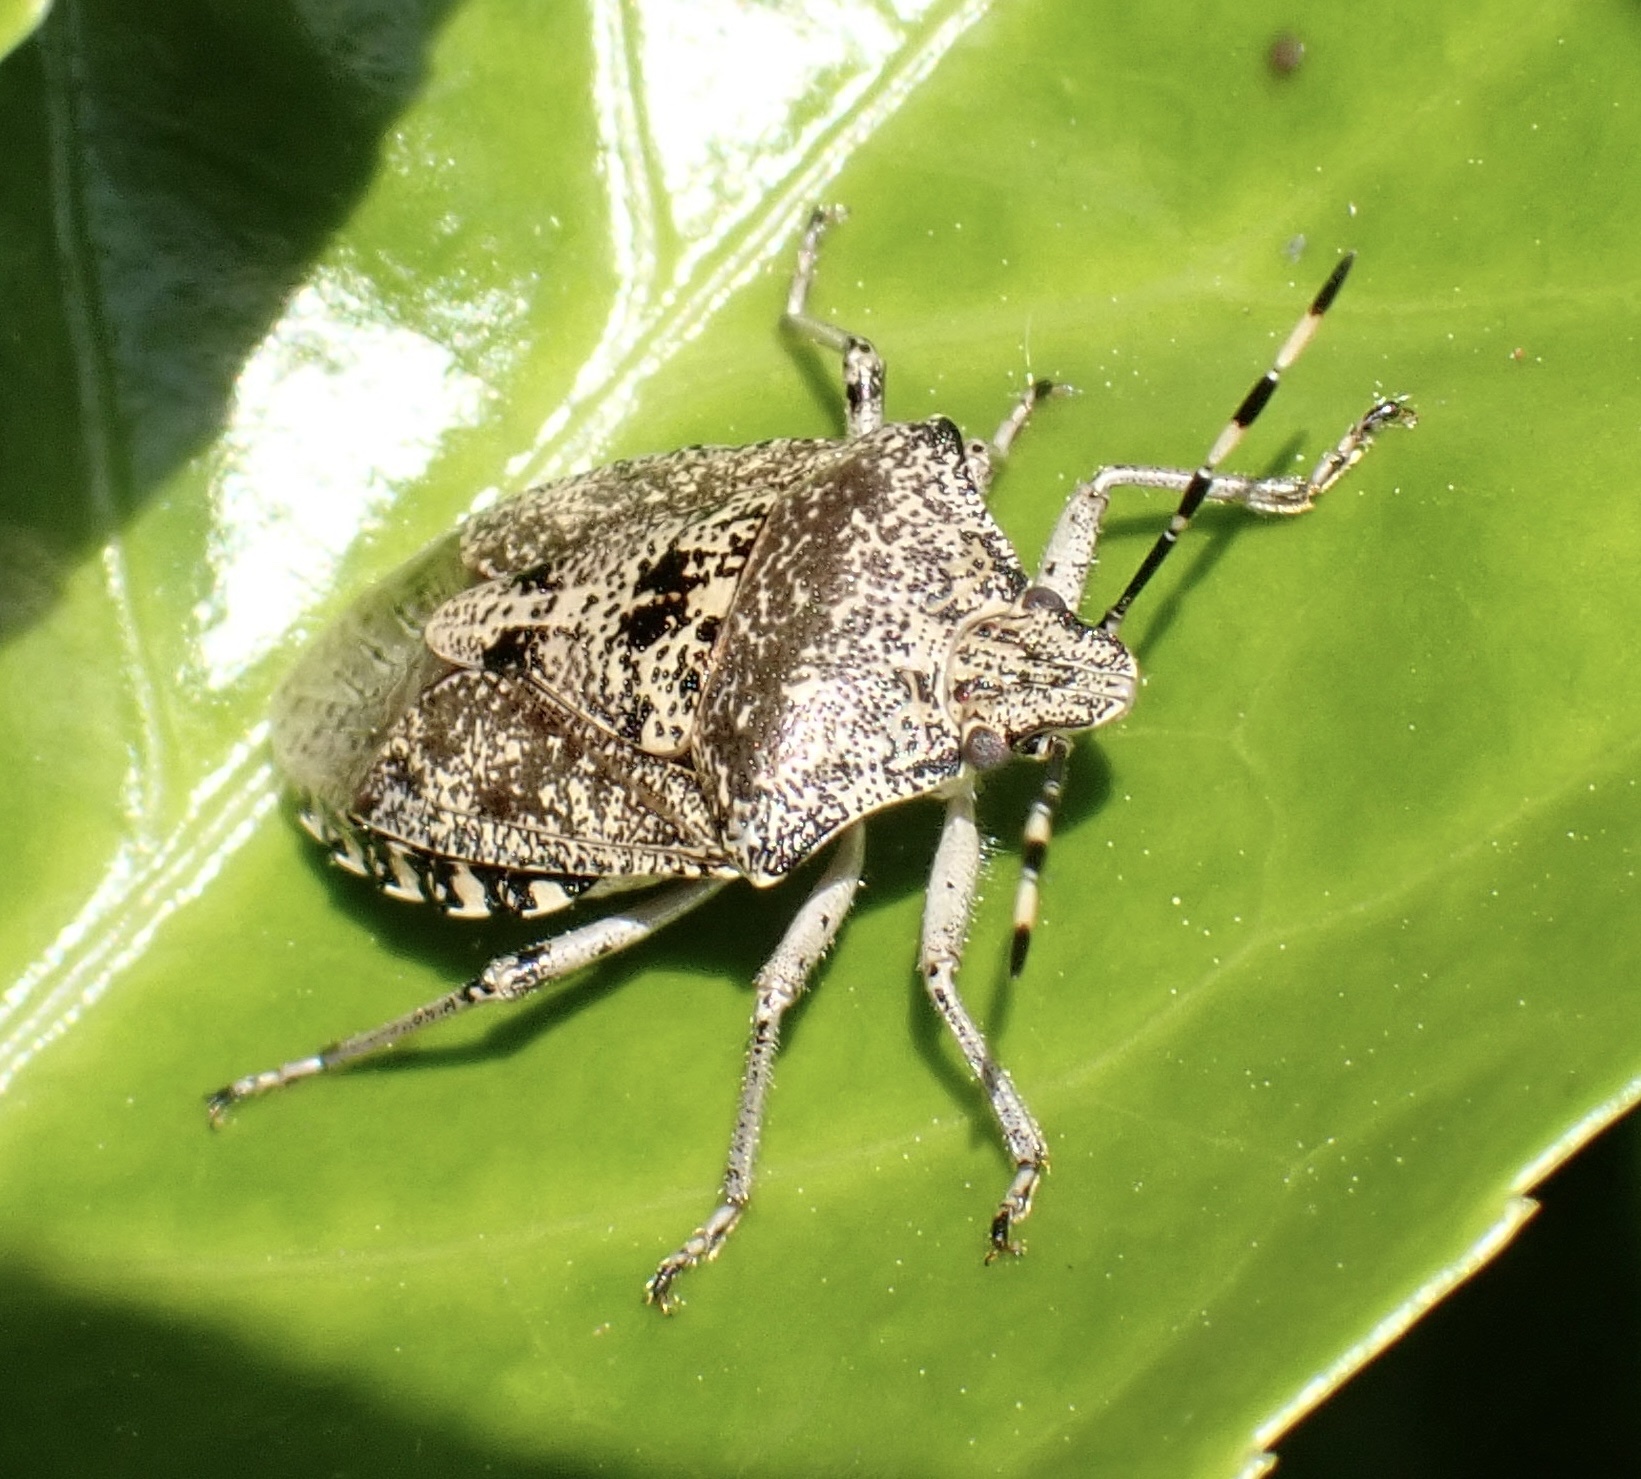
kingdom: Animalia
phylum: Arthropoda
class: Insecta
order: Hemiptera
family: Pentatomidae
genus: Rhaphigaster
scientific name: Rhaphigaster nebulosa
